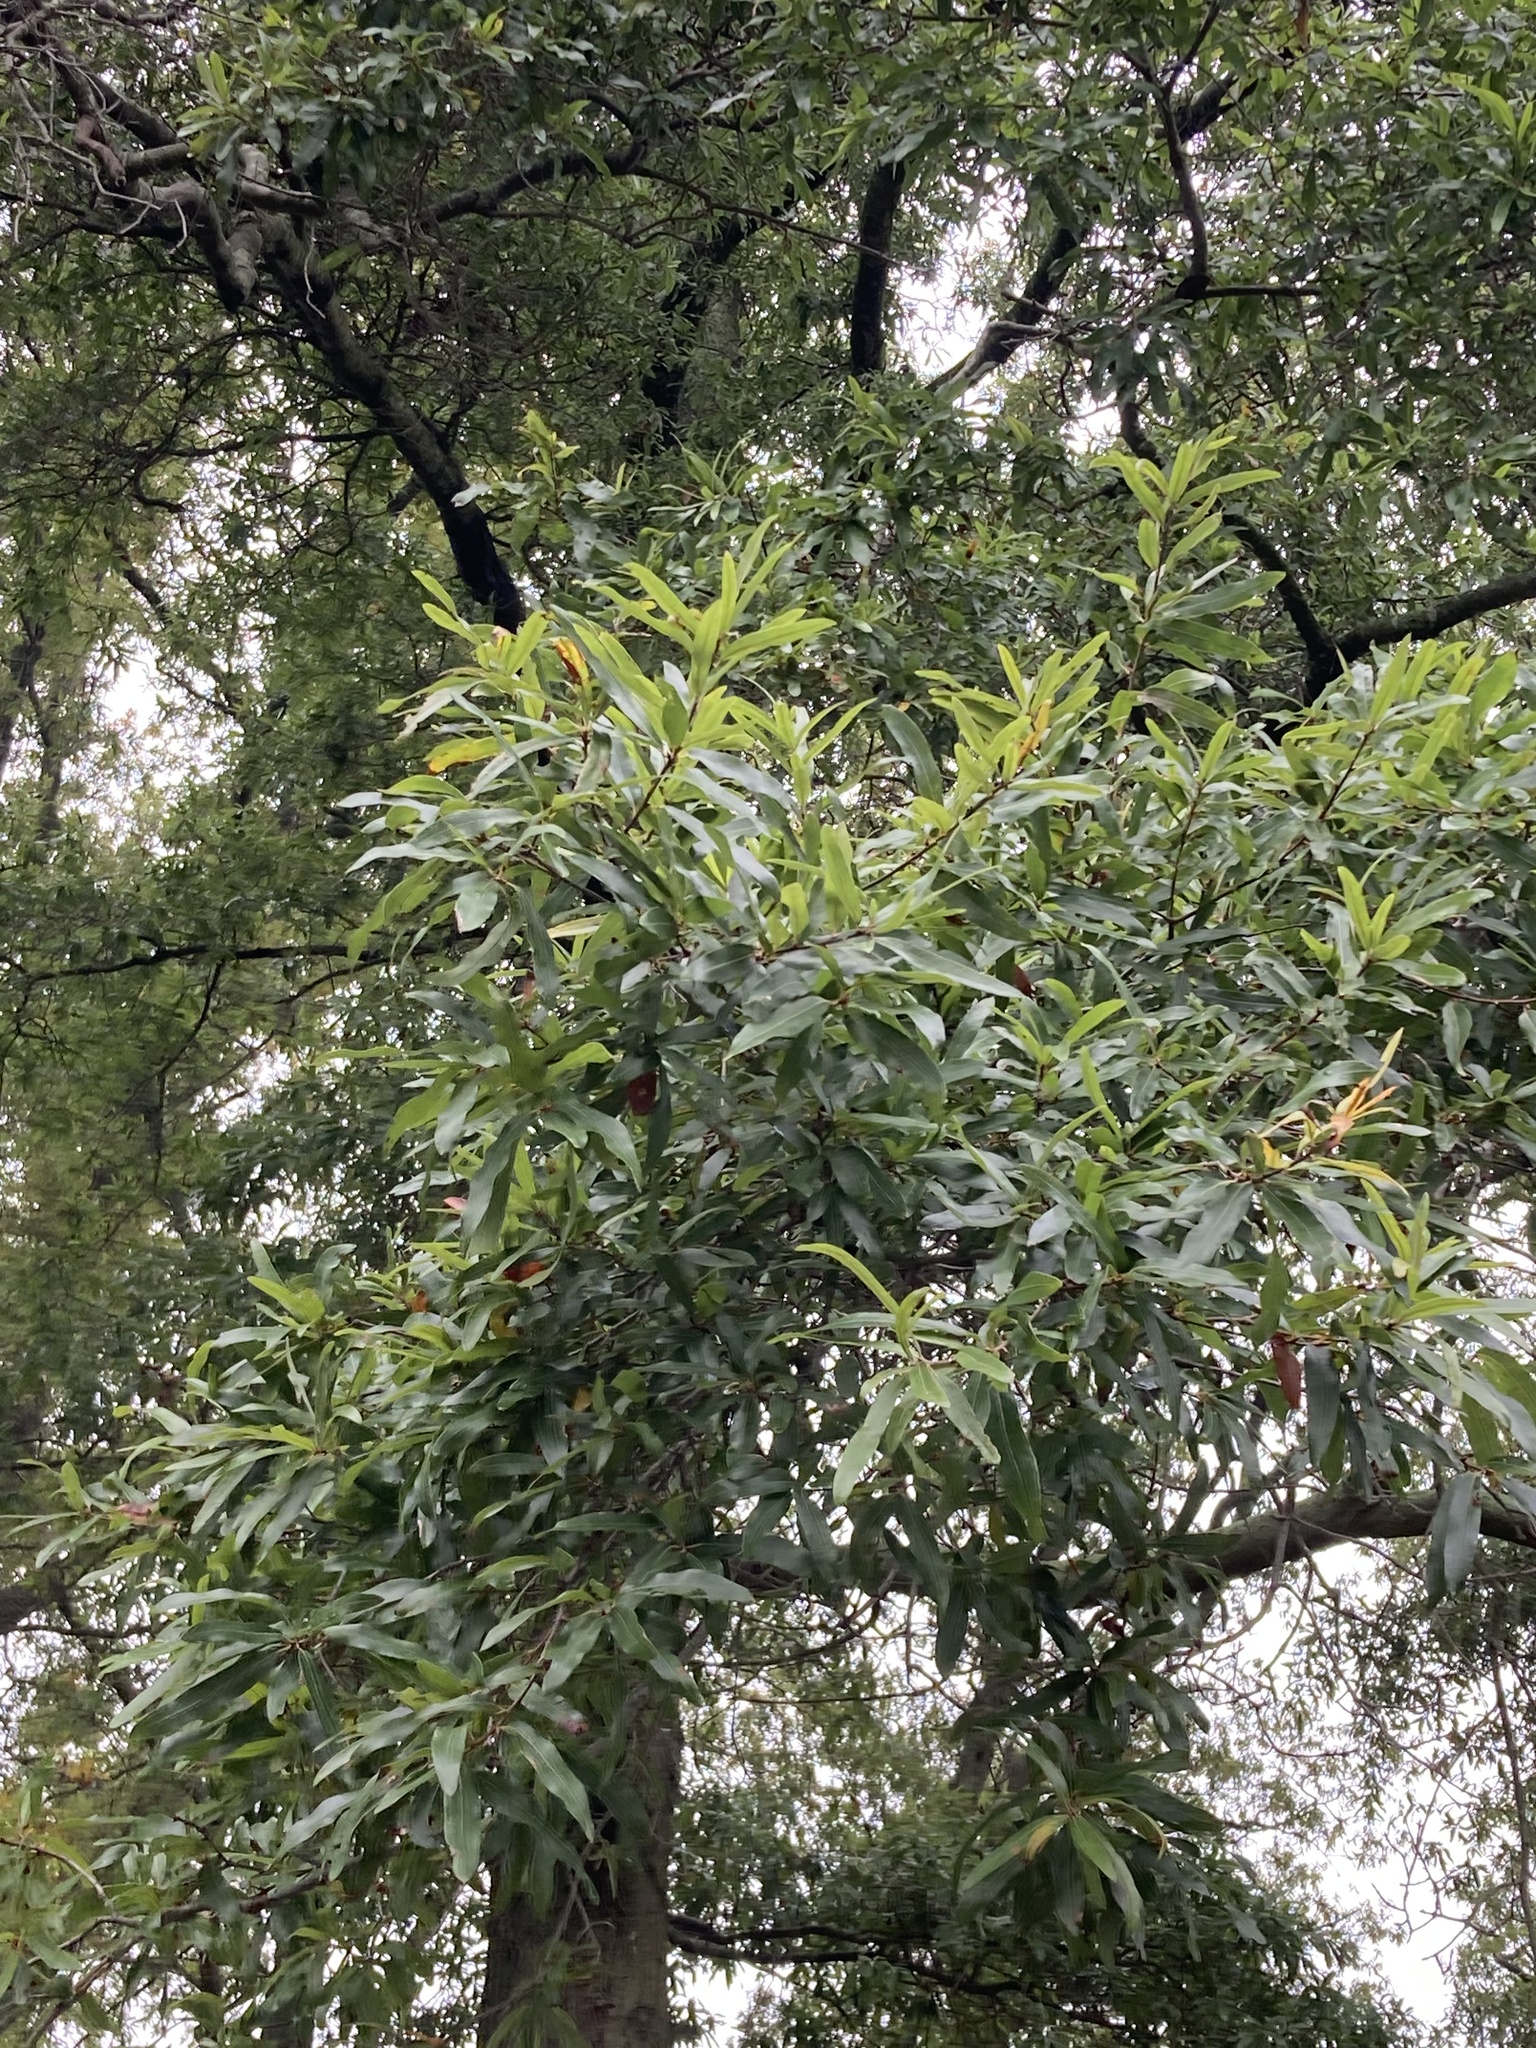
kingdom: Plantae
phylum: Tracheophyta
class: Magnoliopsida
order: Fagales
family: Fagaceae
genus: Quercus
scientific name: Quercus phellos
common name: Willow oak
